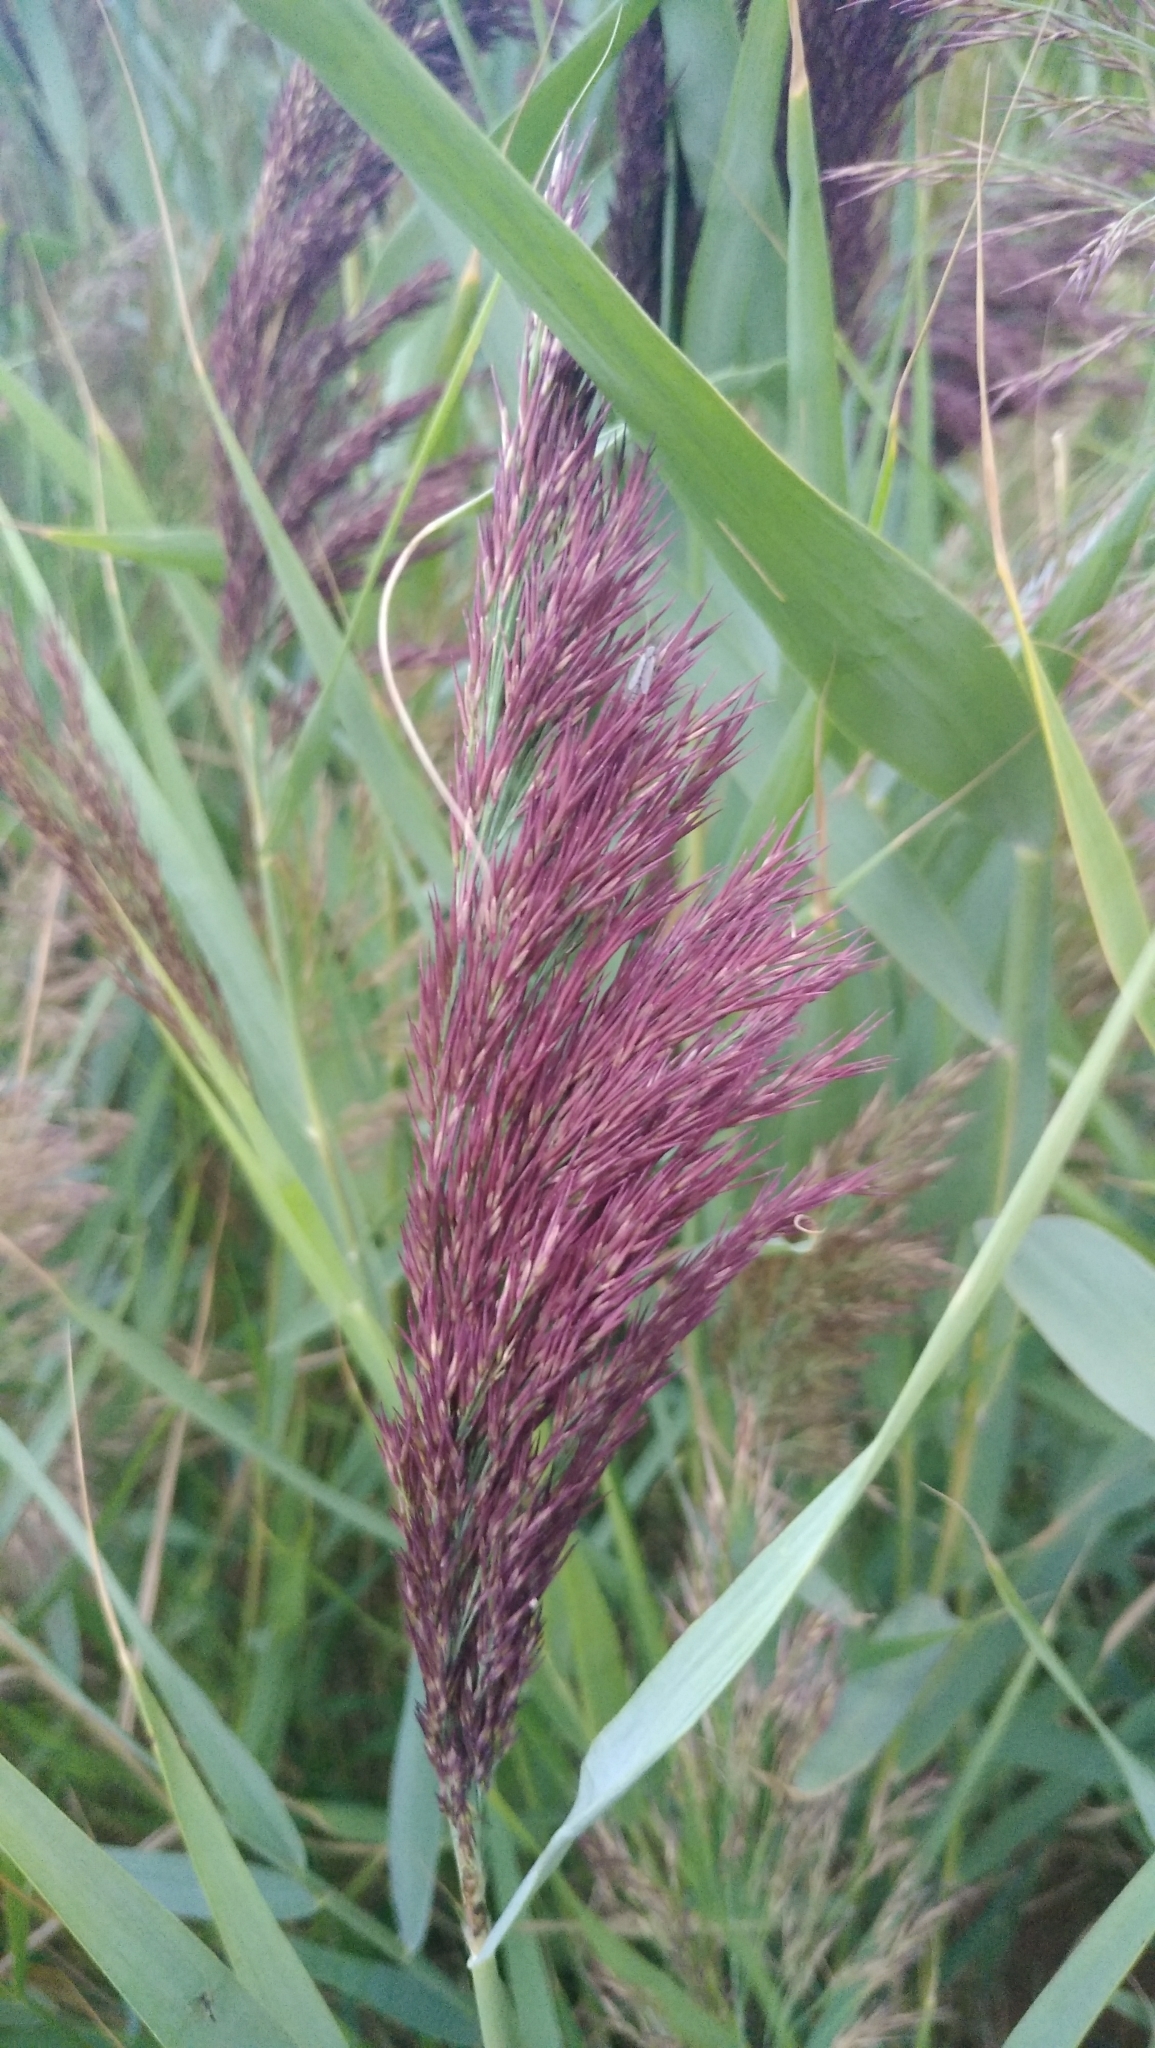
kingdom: Plantae
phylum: Tracheophyta
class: Liliopsida
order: Poales
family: Poaceae
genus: Phragmites
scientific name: Phragmites australis
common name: Common reed
